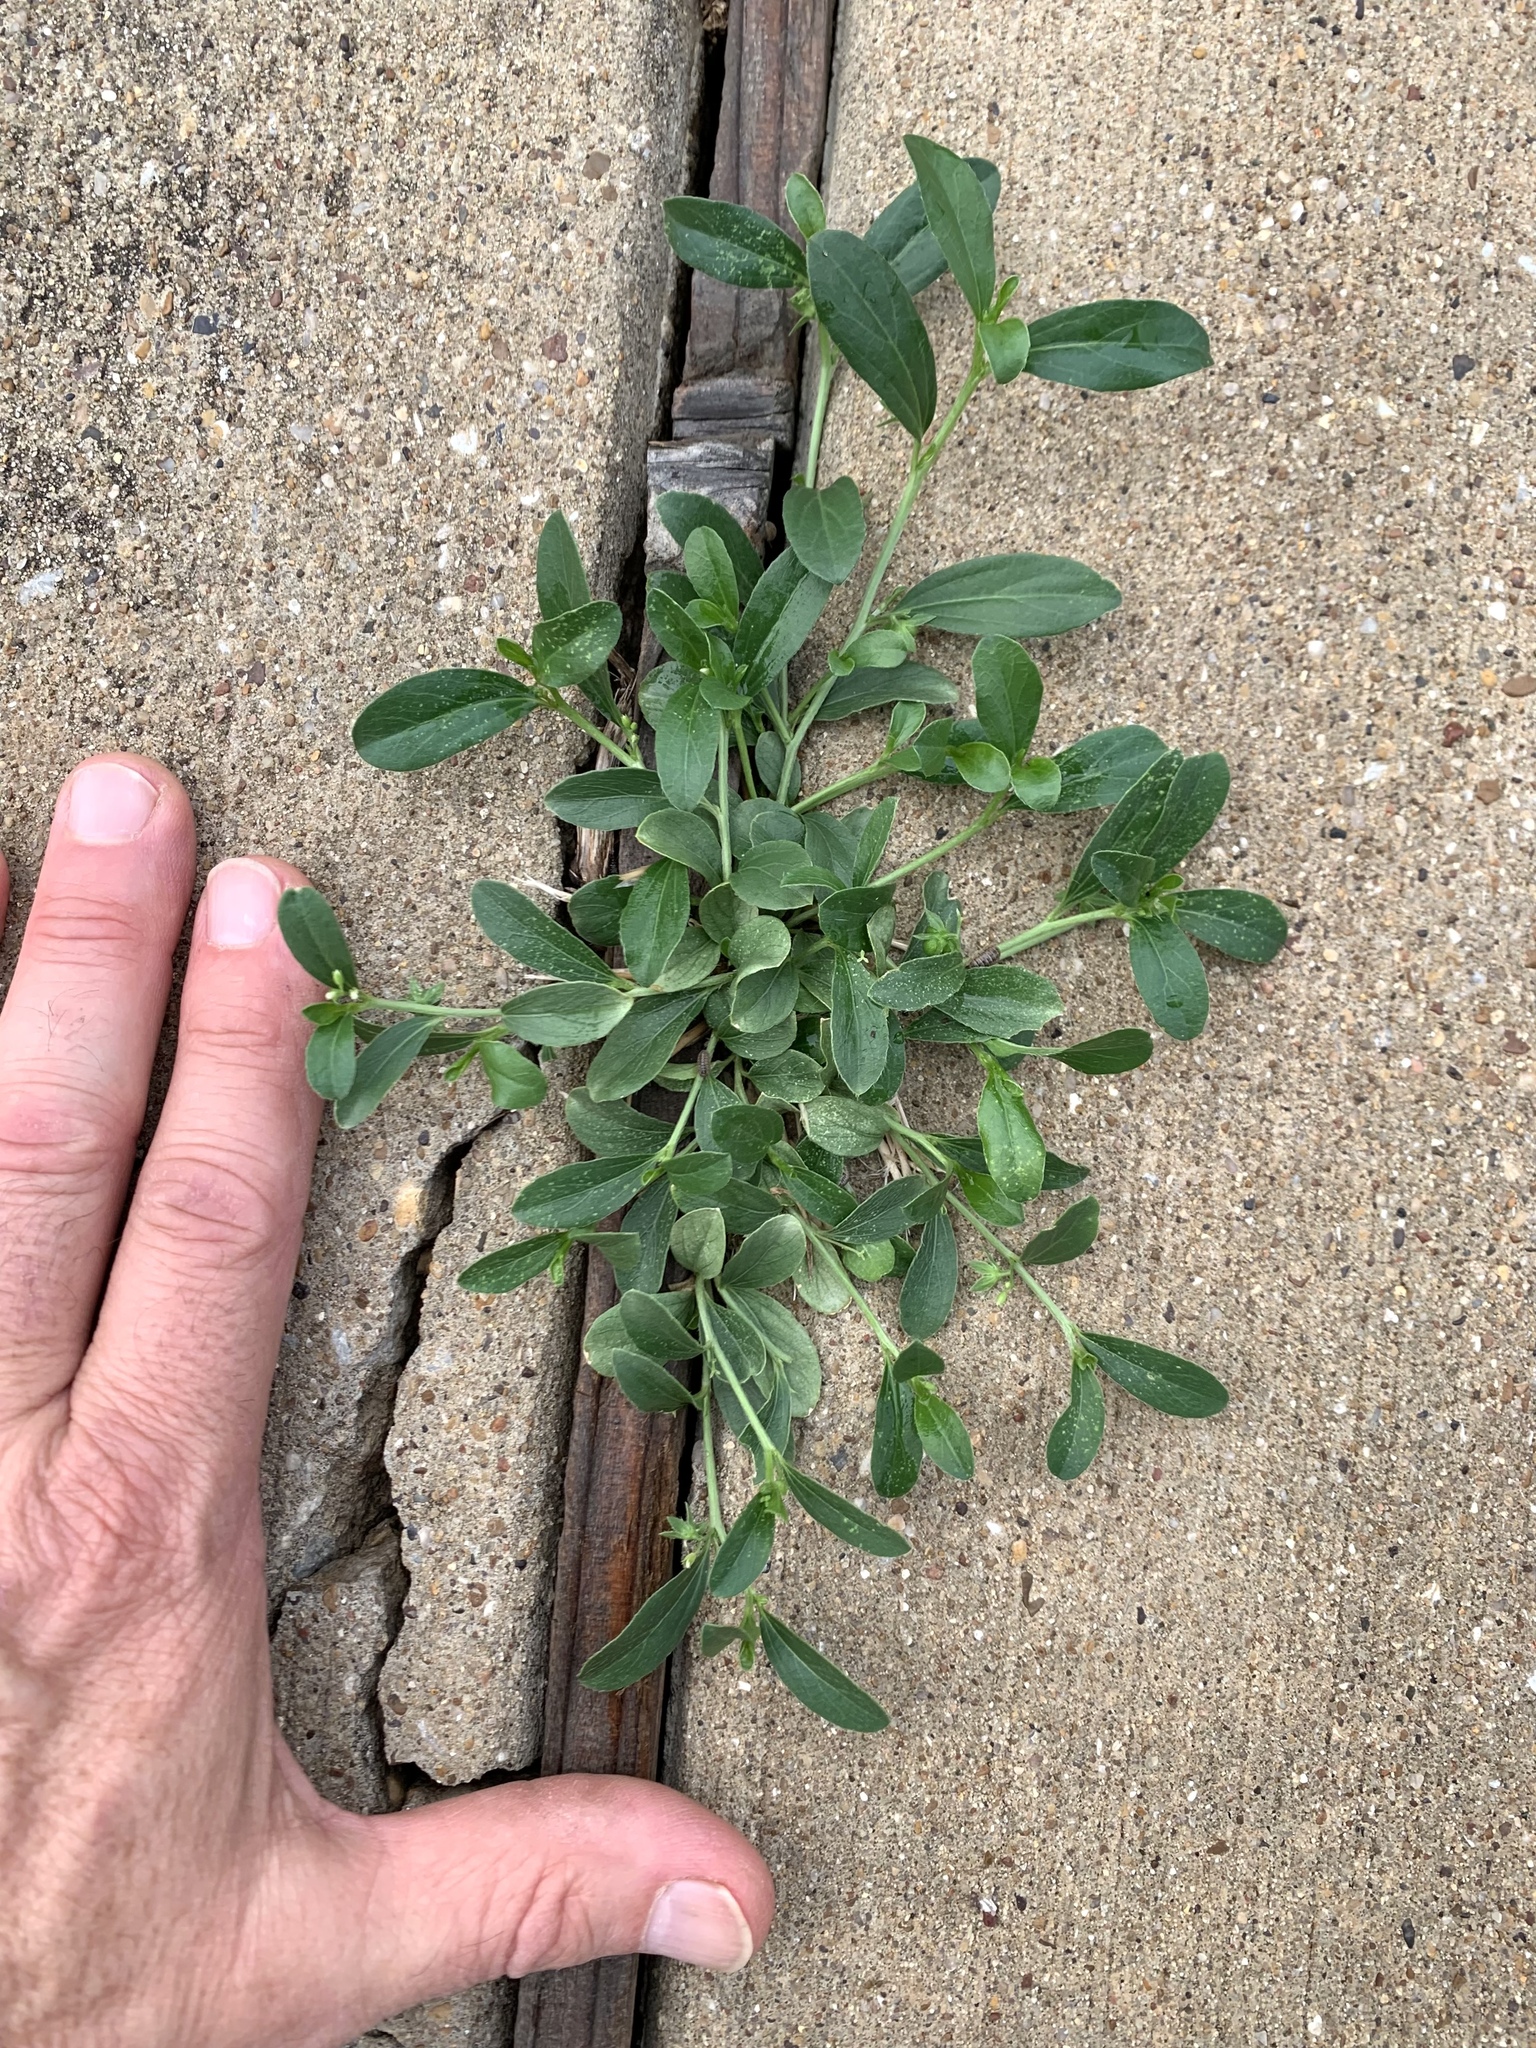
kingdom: Plantae
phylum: Tracheophyta
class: Magnoliopsida
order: Malpighiales
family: Euphorbiaceae
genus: Ditaxis
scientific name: Ditaxis humilis
